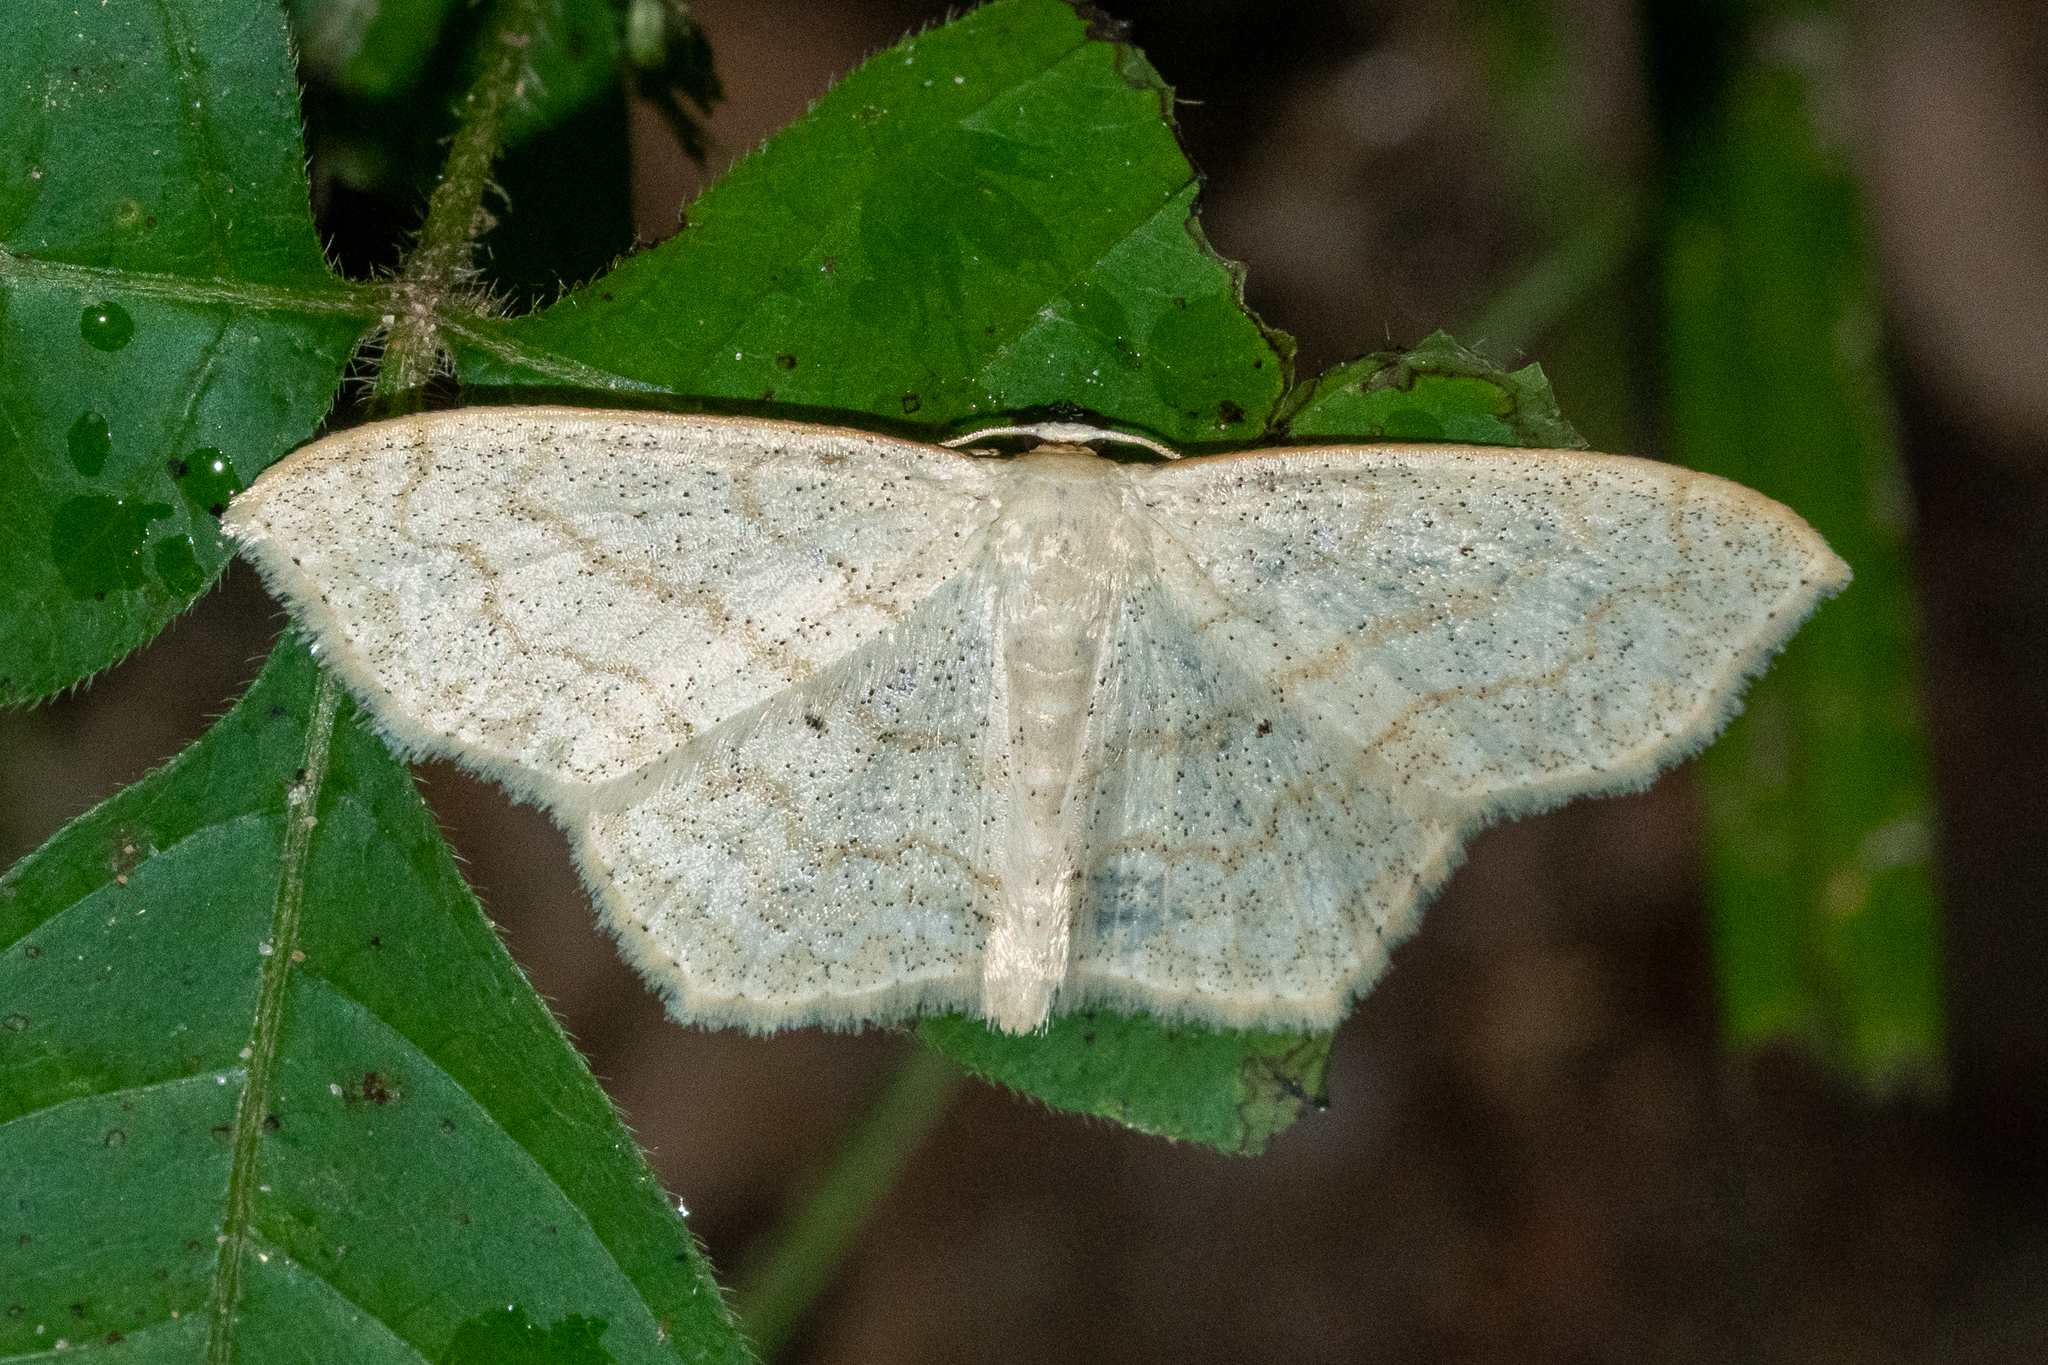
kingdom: Animalia
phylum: Arthropoda
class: Insecta
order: Lepidoptera
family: Geometridae
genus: Scopula
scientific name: Scopula limboundata
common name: Large lace border
